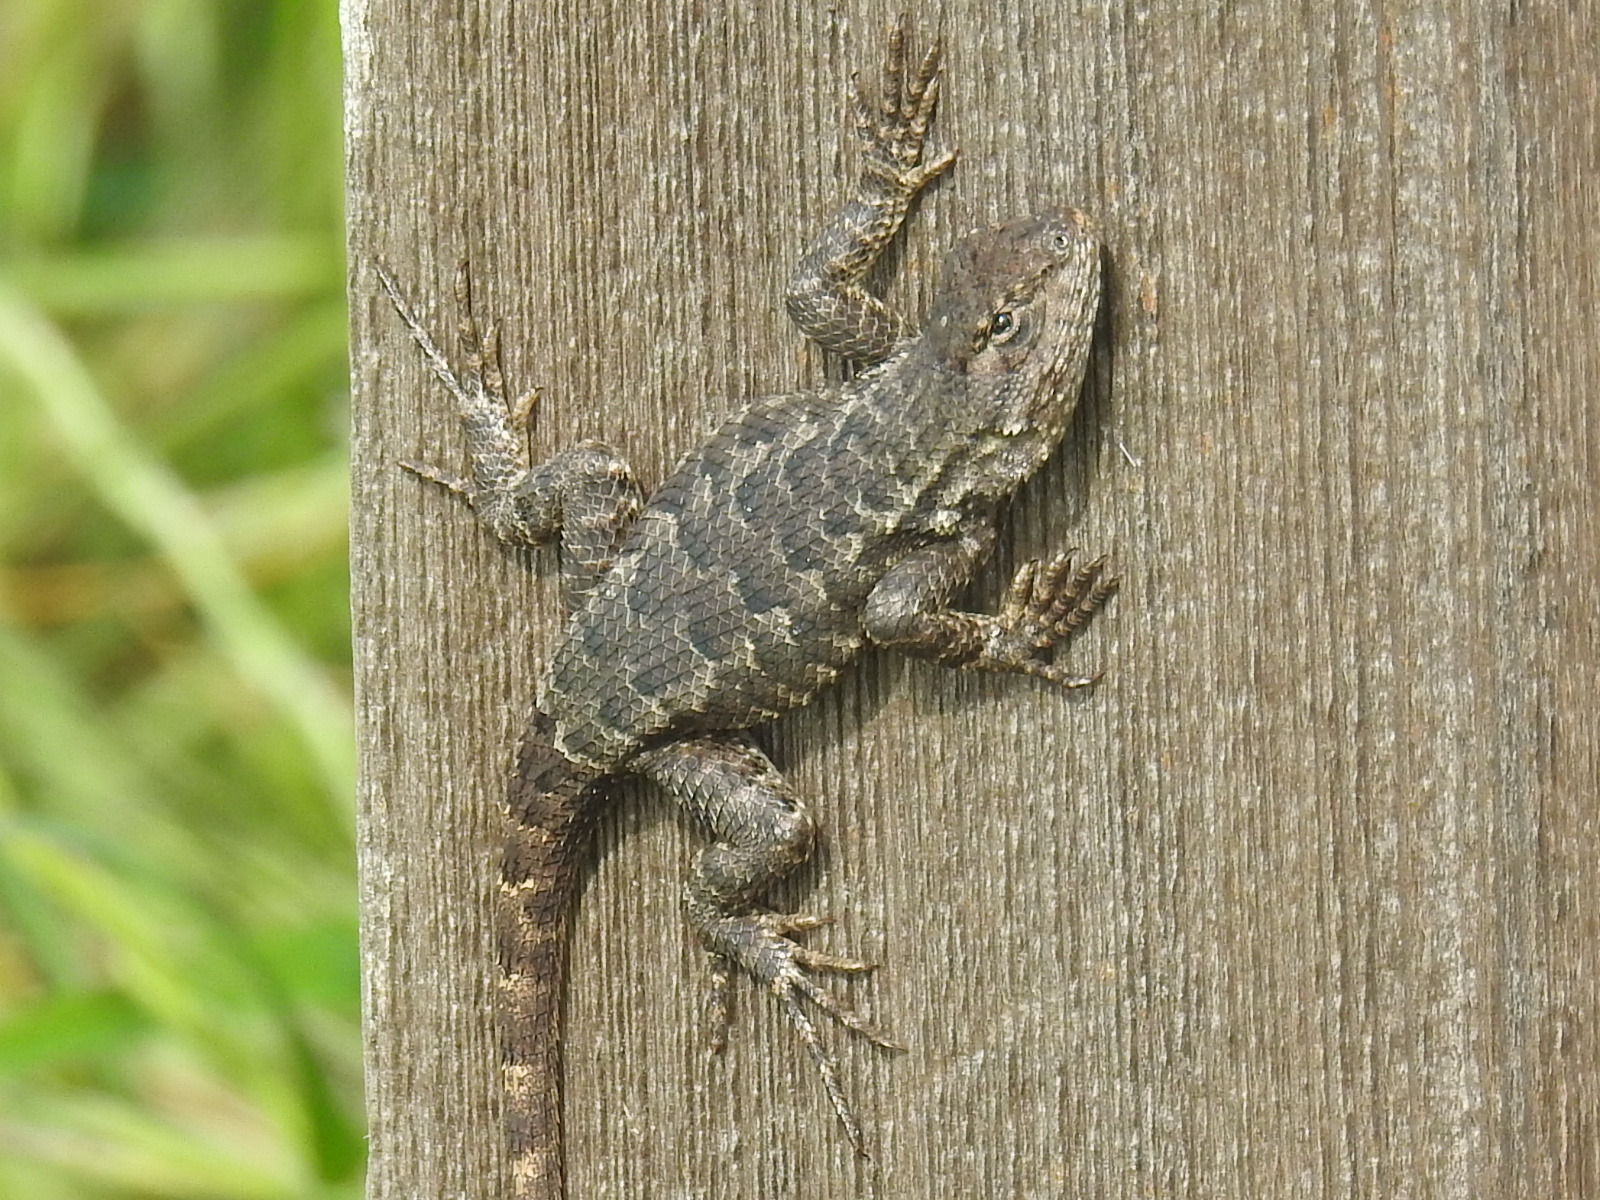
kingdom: Animalia
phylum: Chordata
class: Squamata
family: Phrynosomatidae
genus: Sceloporus
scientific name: Sceloporus occidentalis
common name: Western fence lizard
